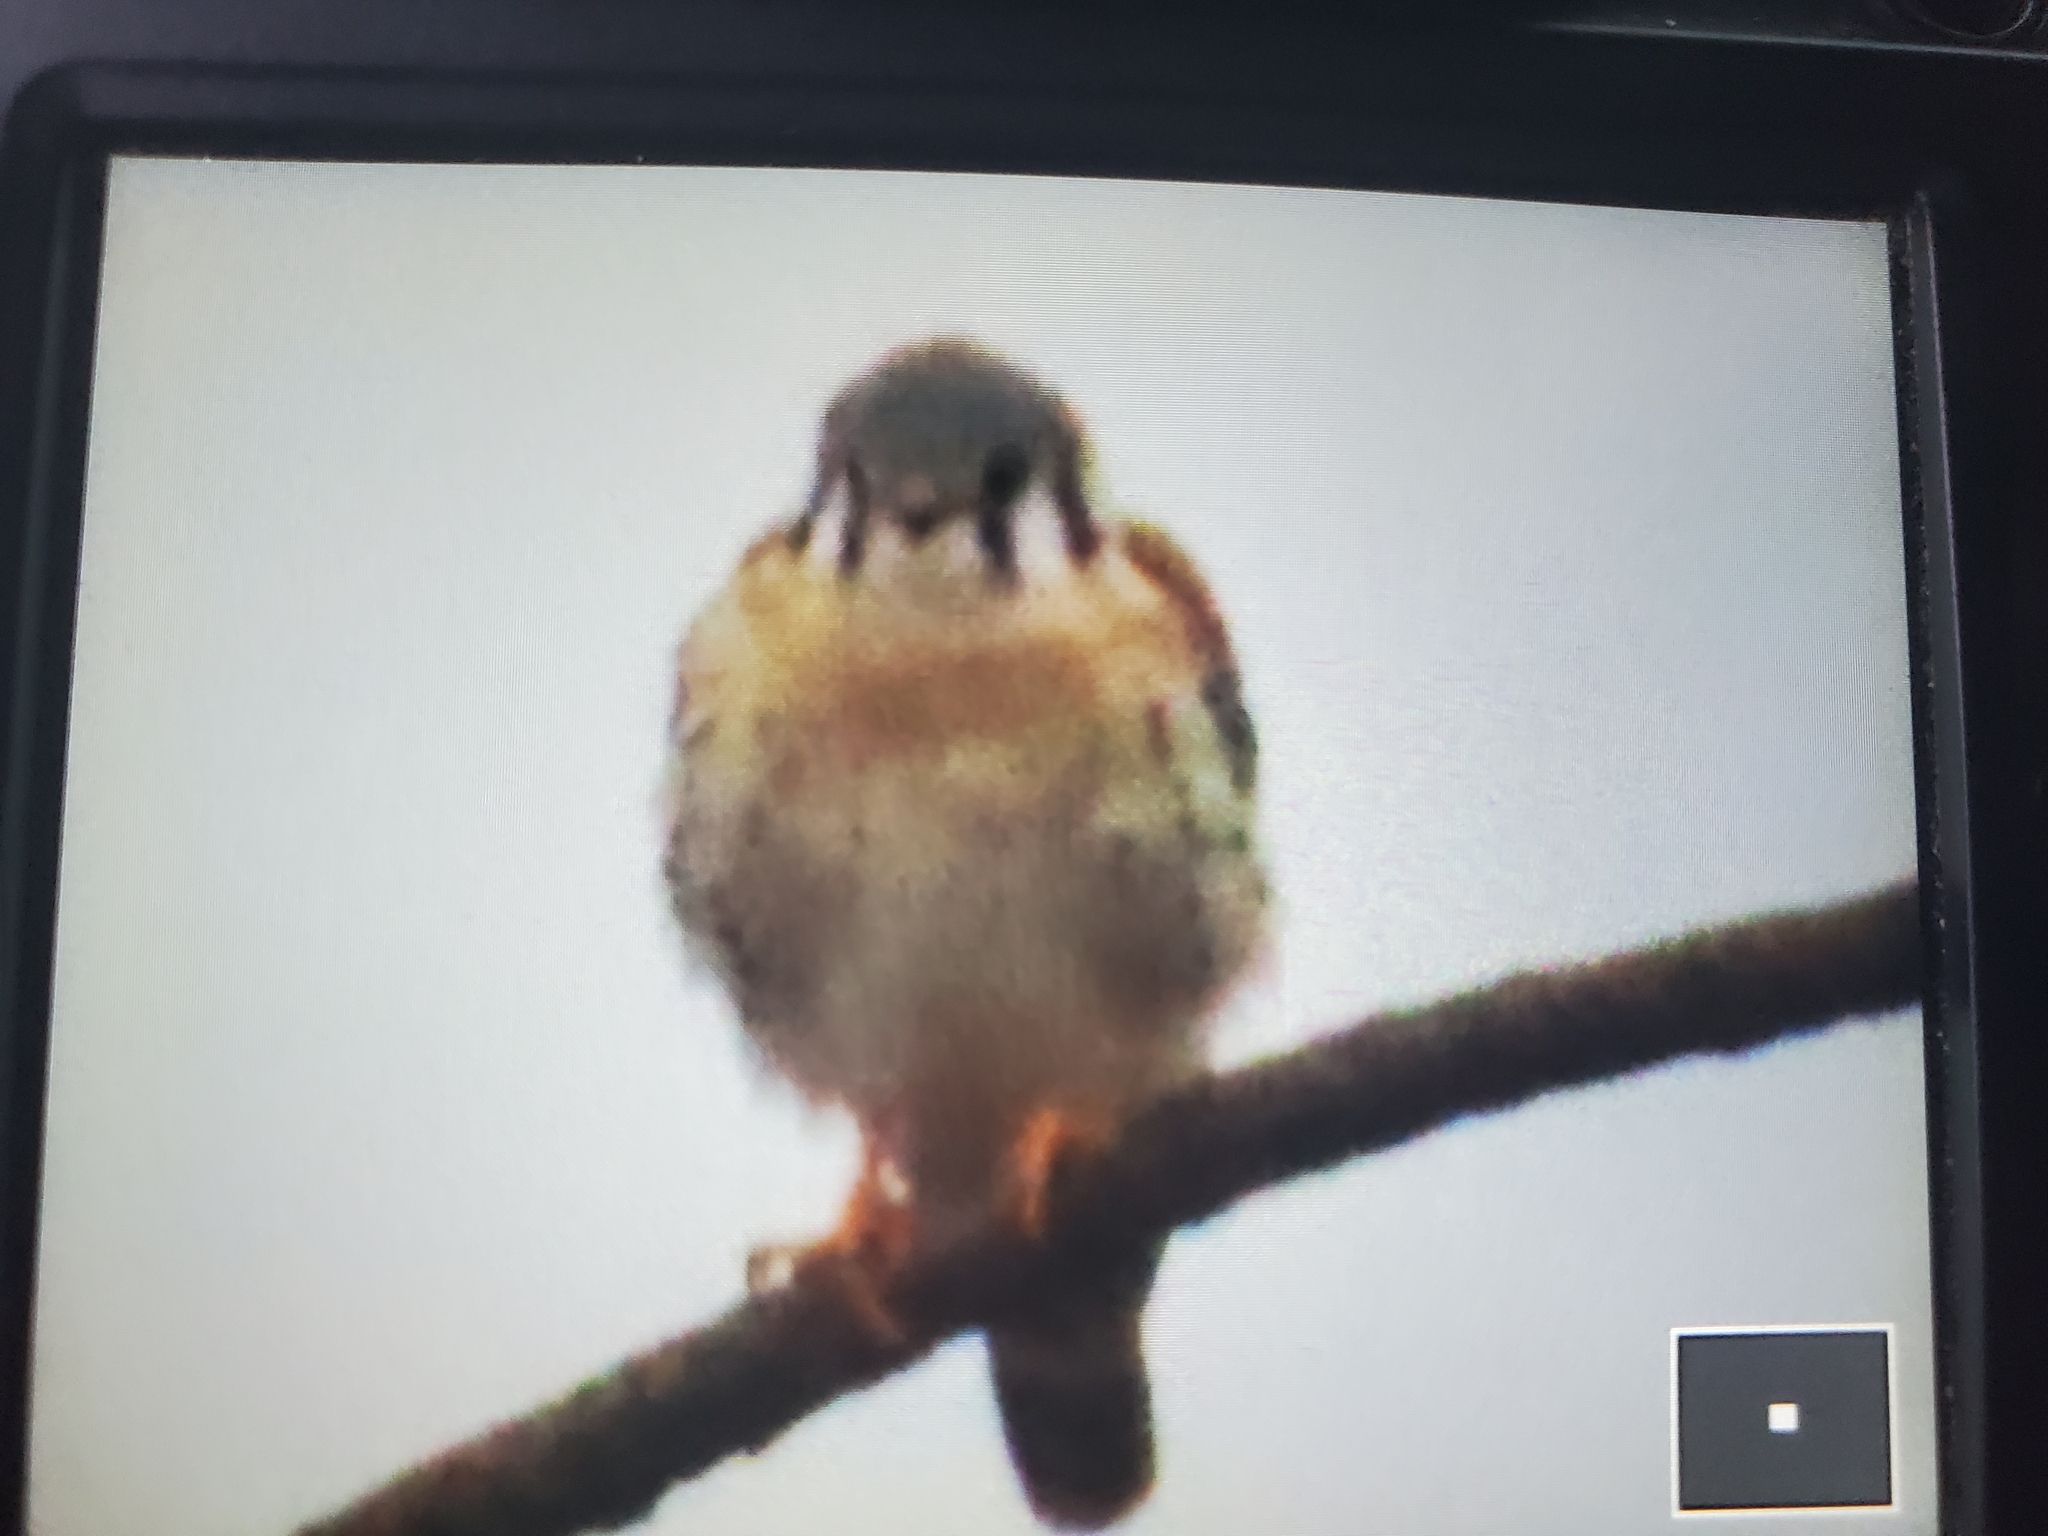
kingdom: Animalia
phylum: Chordata
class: Aves
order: Falconiformes
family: Falconidae
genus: Falco
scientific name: Falco sparverius
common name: American kestrel
